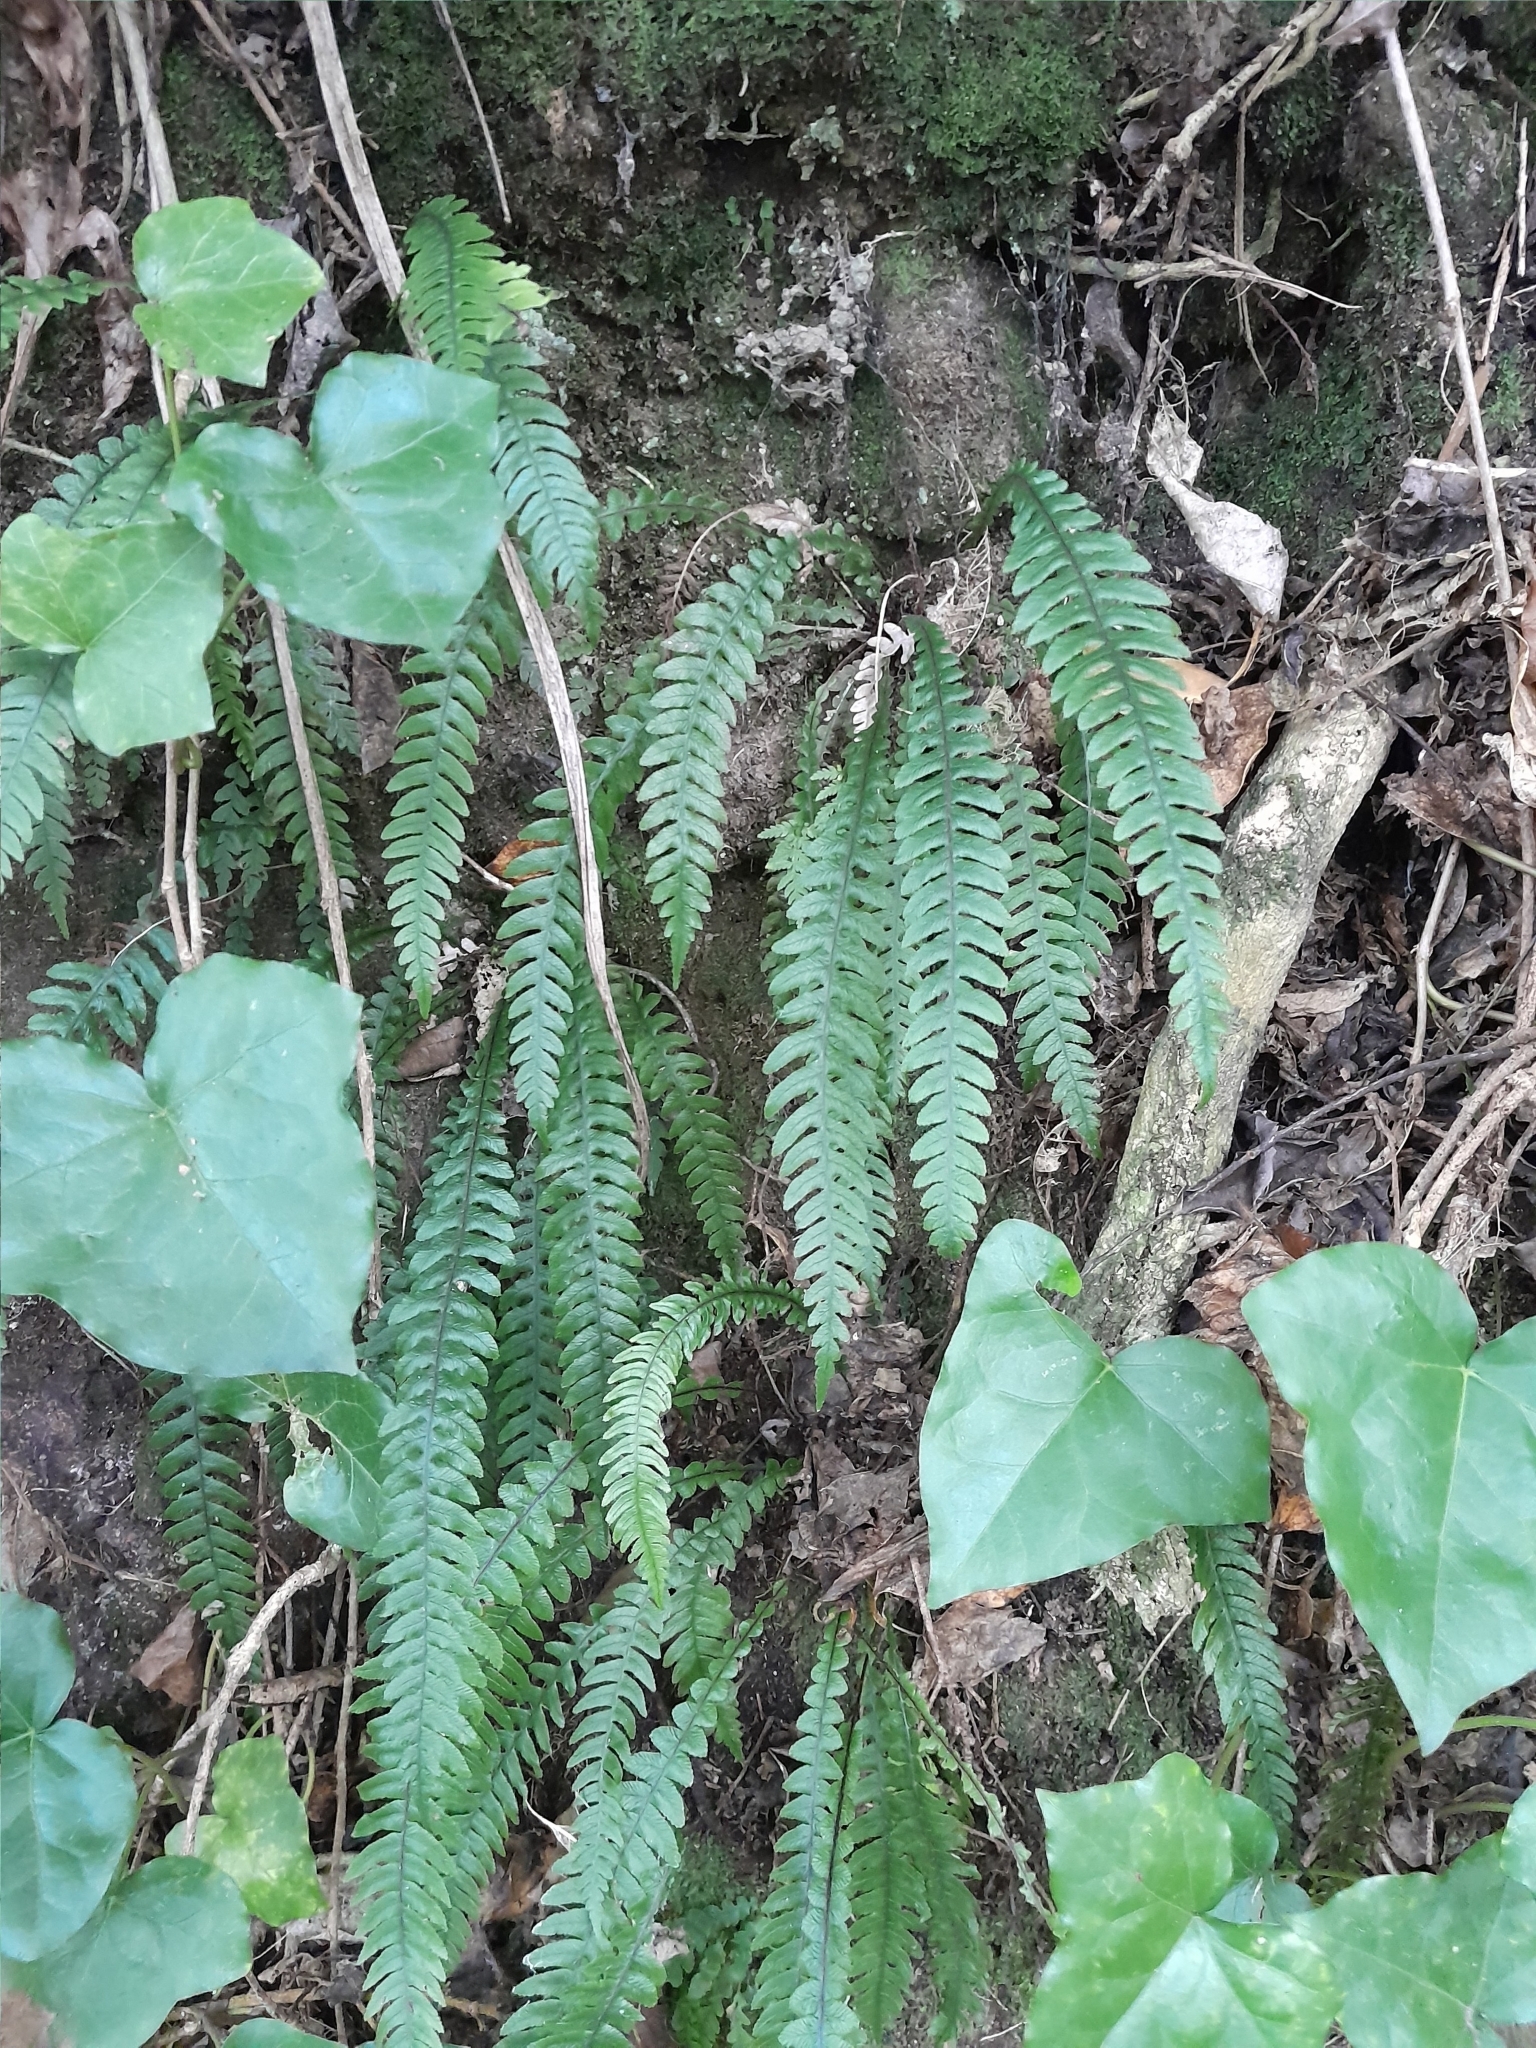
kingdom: Plantae
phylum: Tracheophyta
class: Polypodiopsida
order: Polypodiales
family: Blechnaceae
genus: Austroblechnum
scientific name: Austroblechnum lanceolatum
